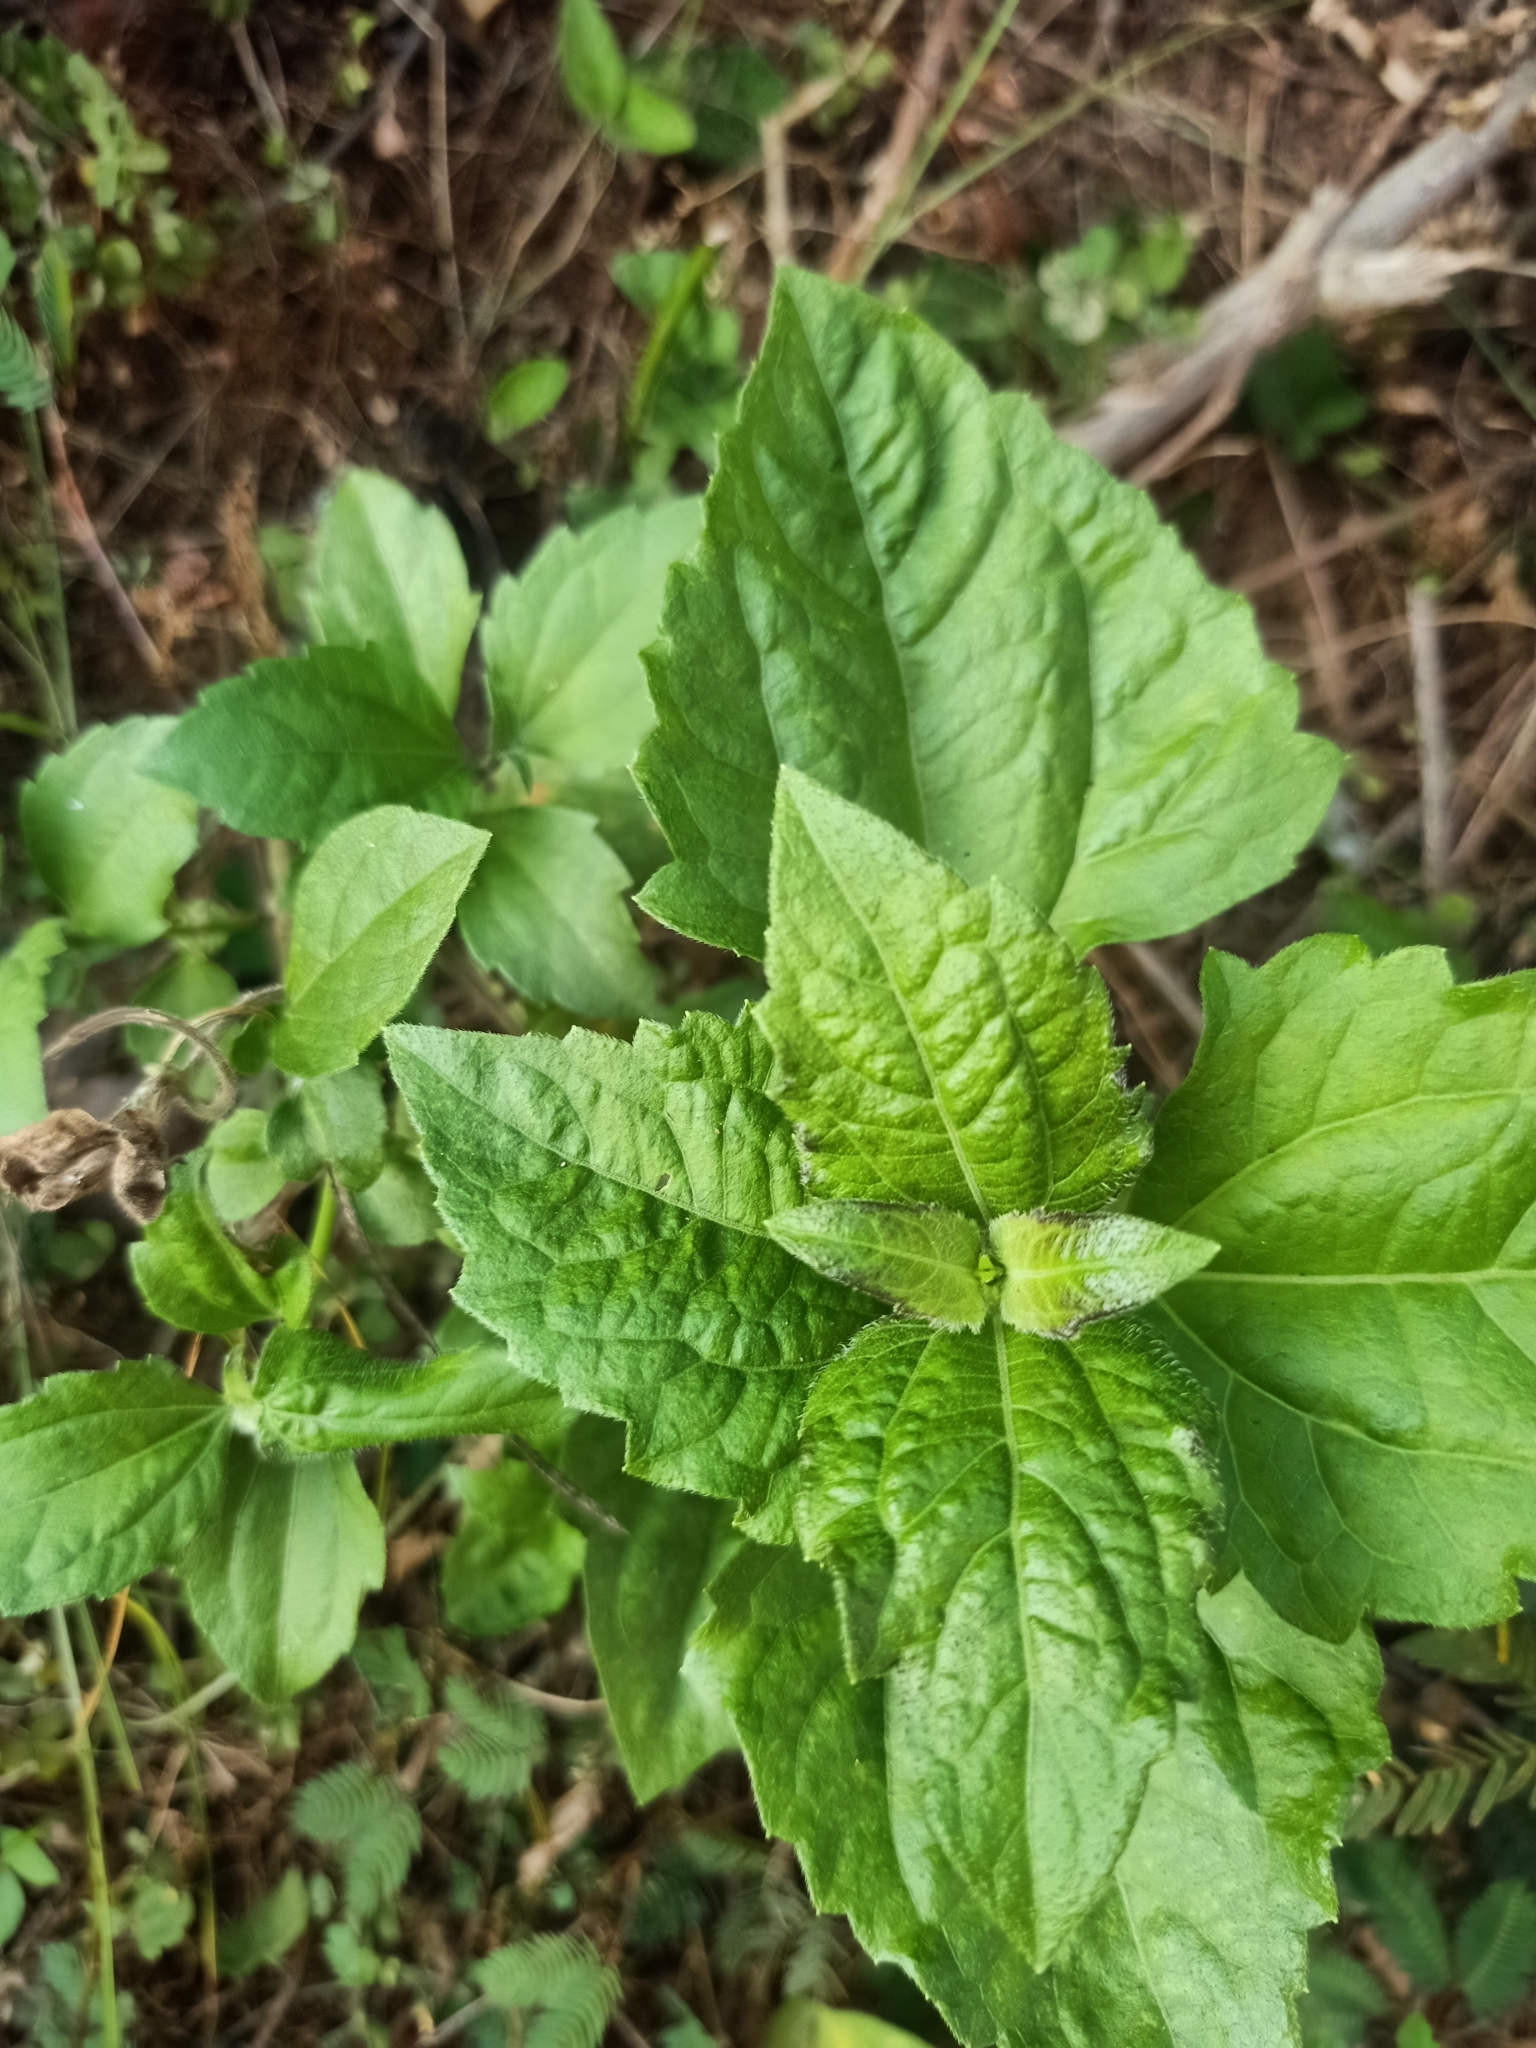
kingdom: Plantae
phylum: Tracheophyta
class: Magnoliopsida
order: Asterales
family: Asteraceae
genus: Chromolaena
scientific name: Chromolaena odorata
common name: Siamweed
